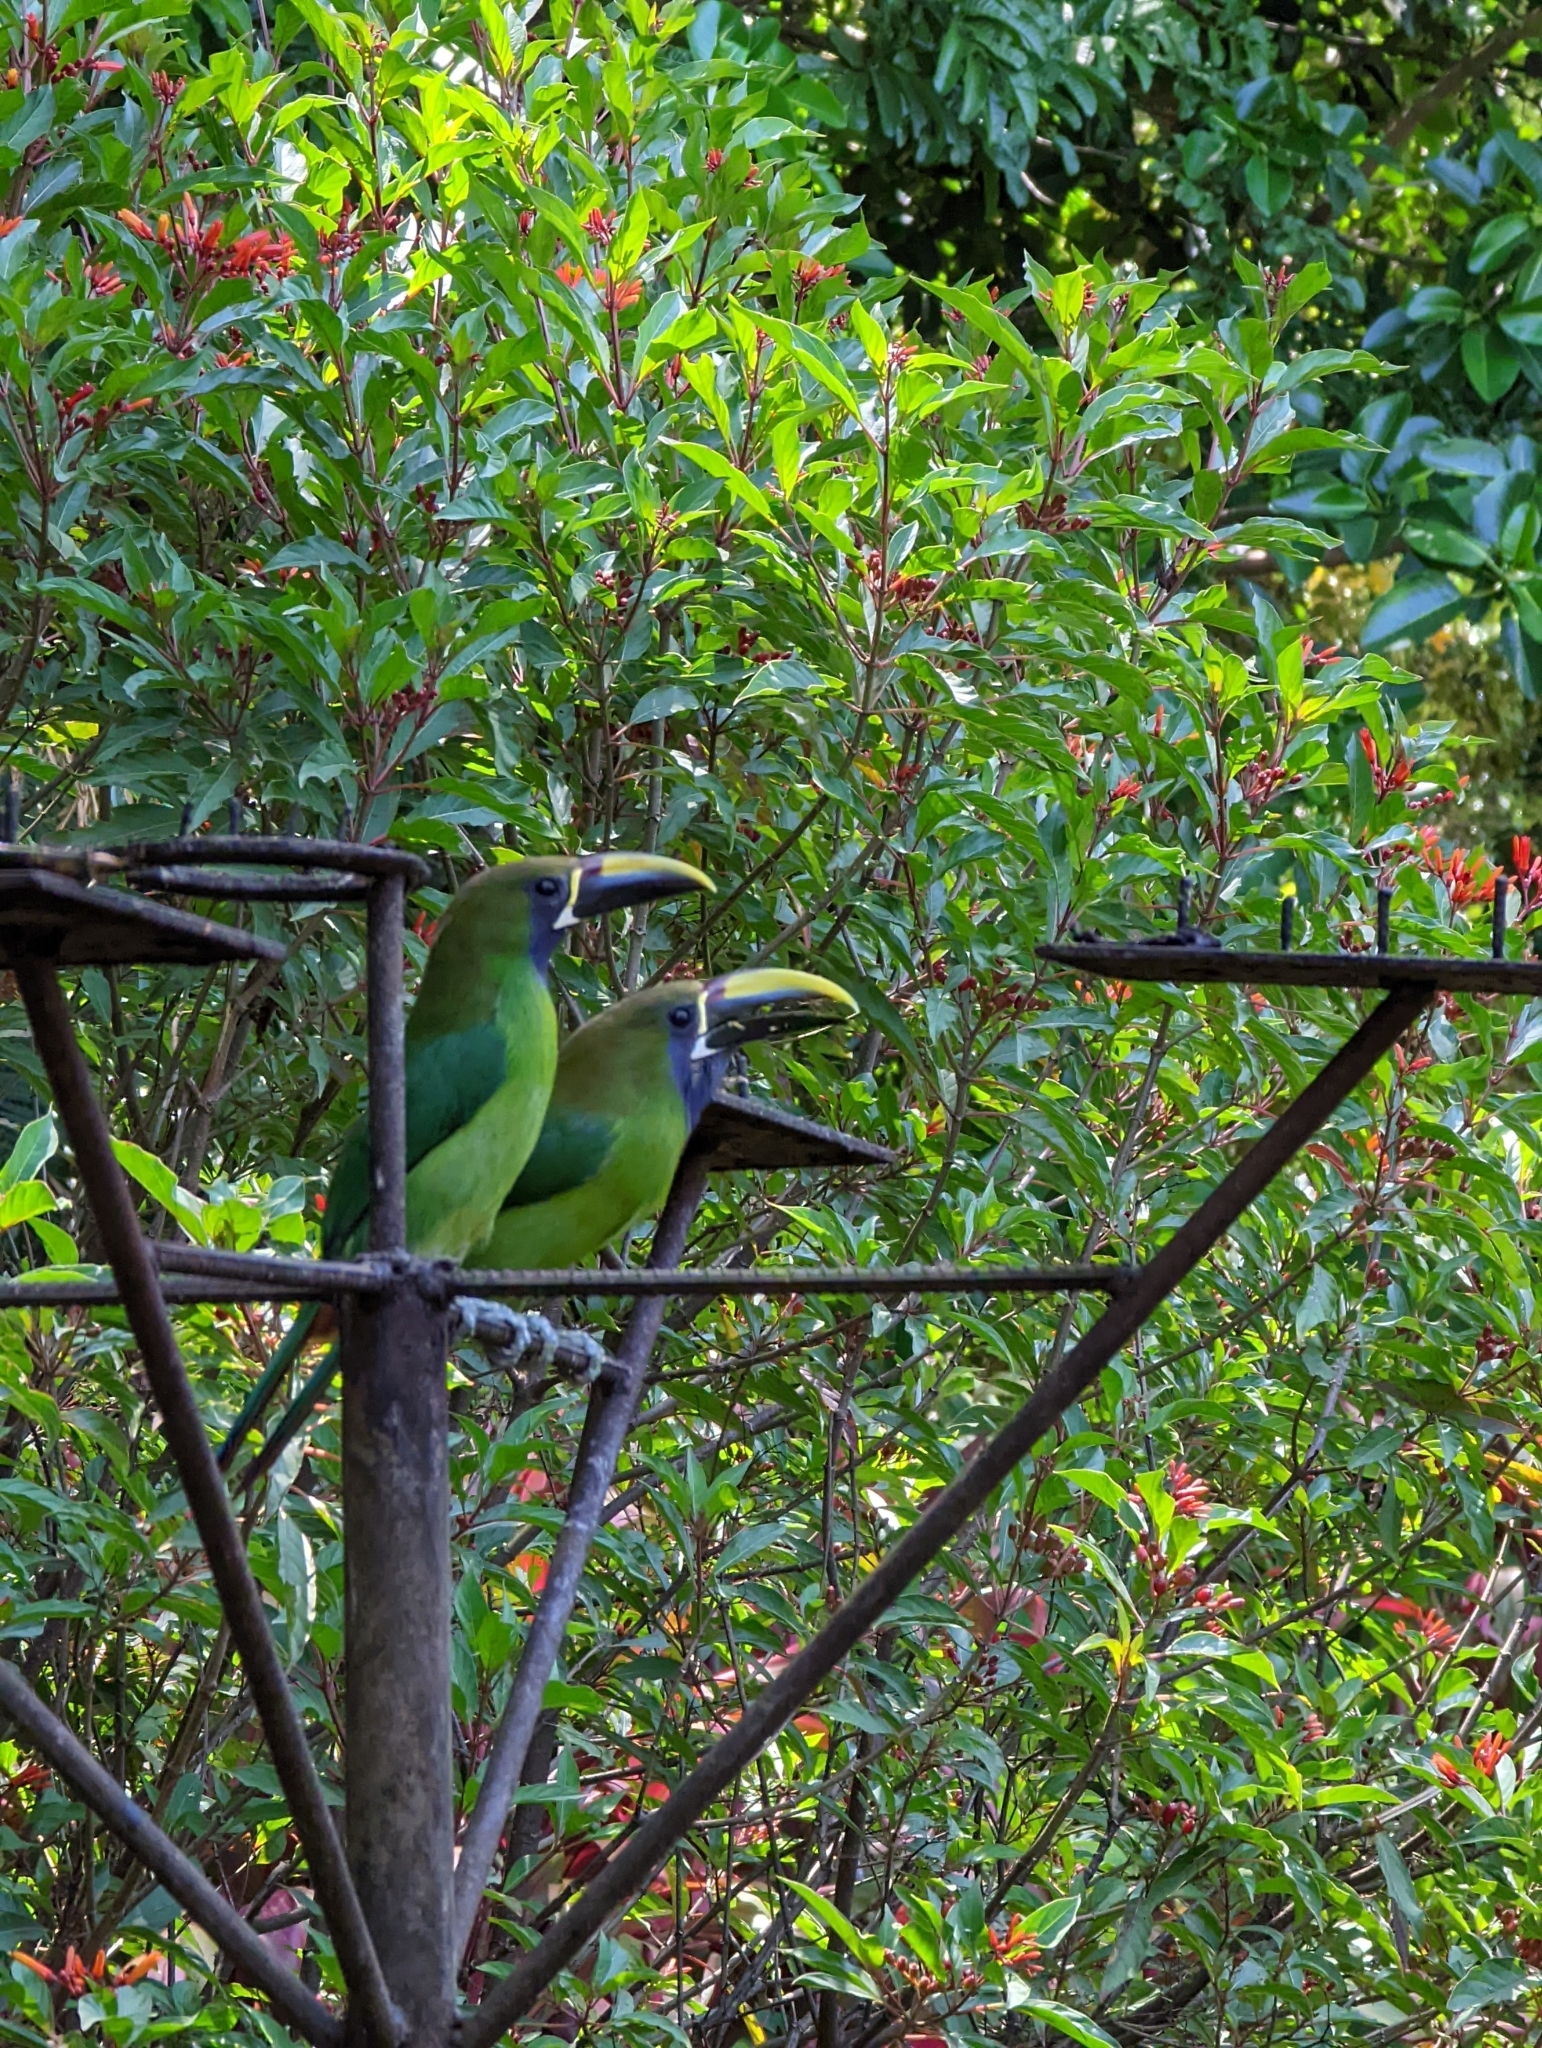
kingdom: Animalia
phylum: Chordata
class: Aves
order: Piciformes
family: Ramphastidae
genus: Aulacorhynchus
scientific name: Aulacorhynchus prasinus
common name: Emerald toucanet
